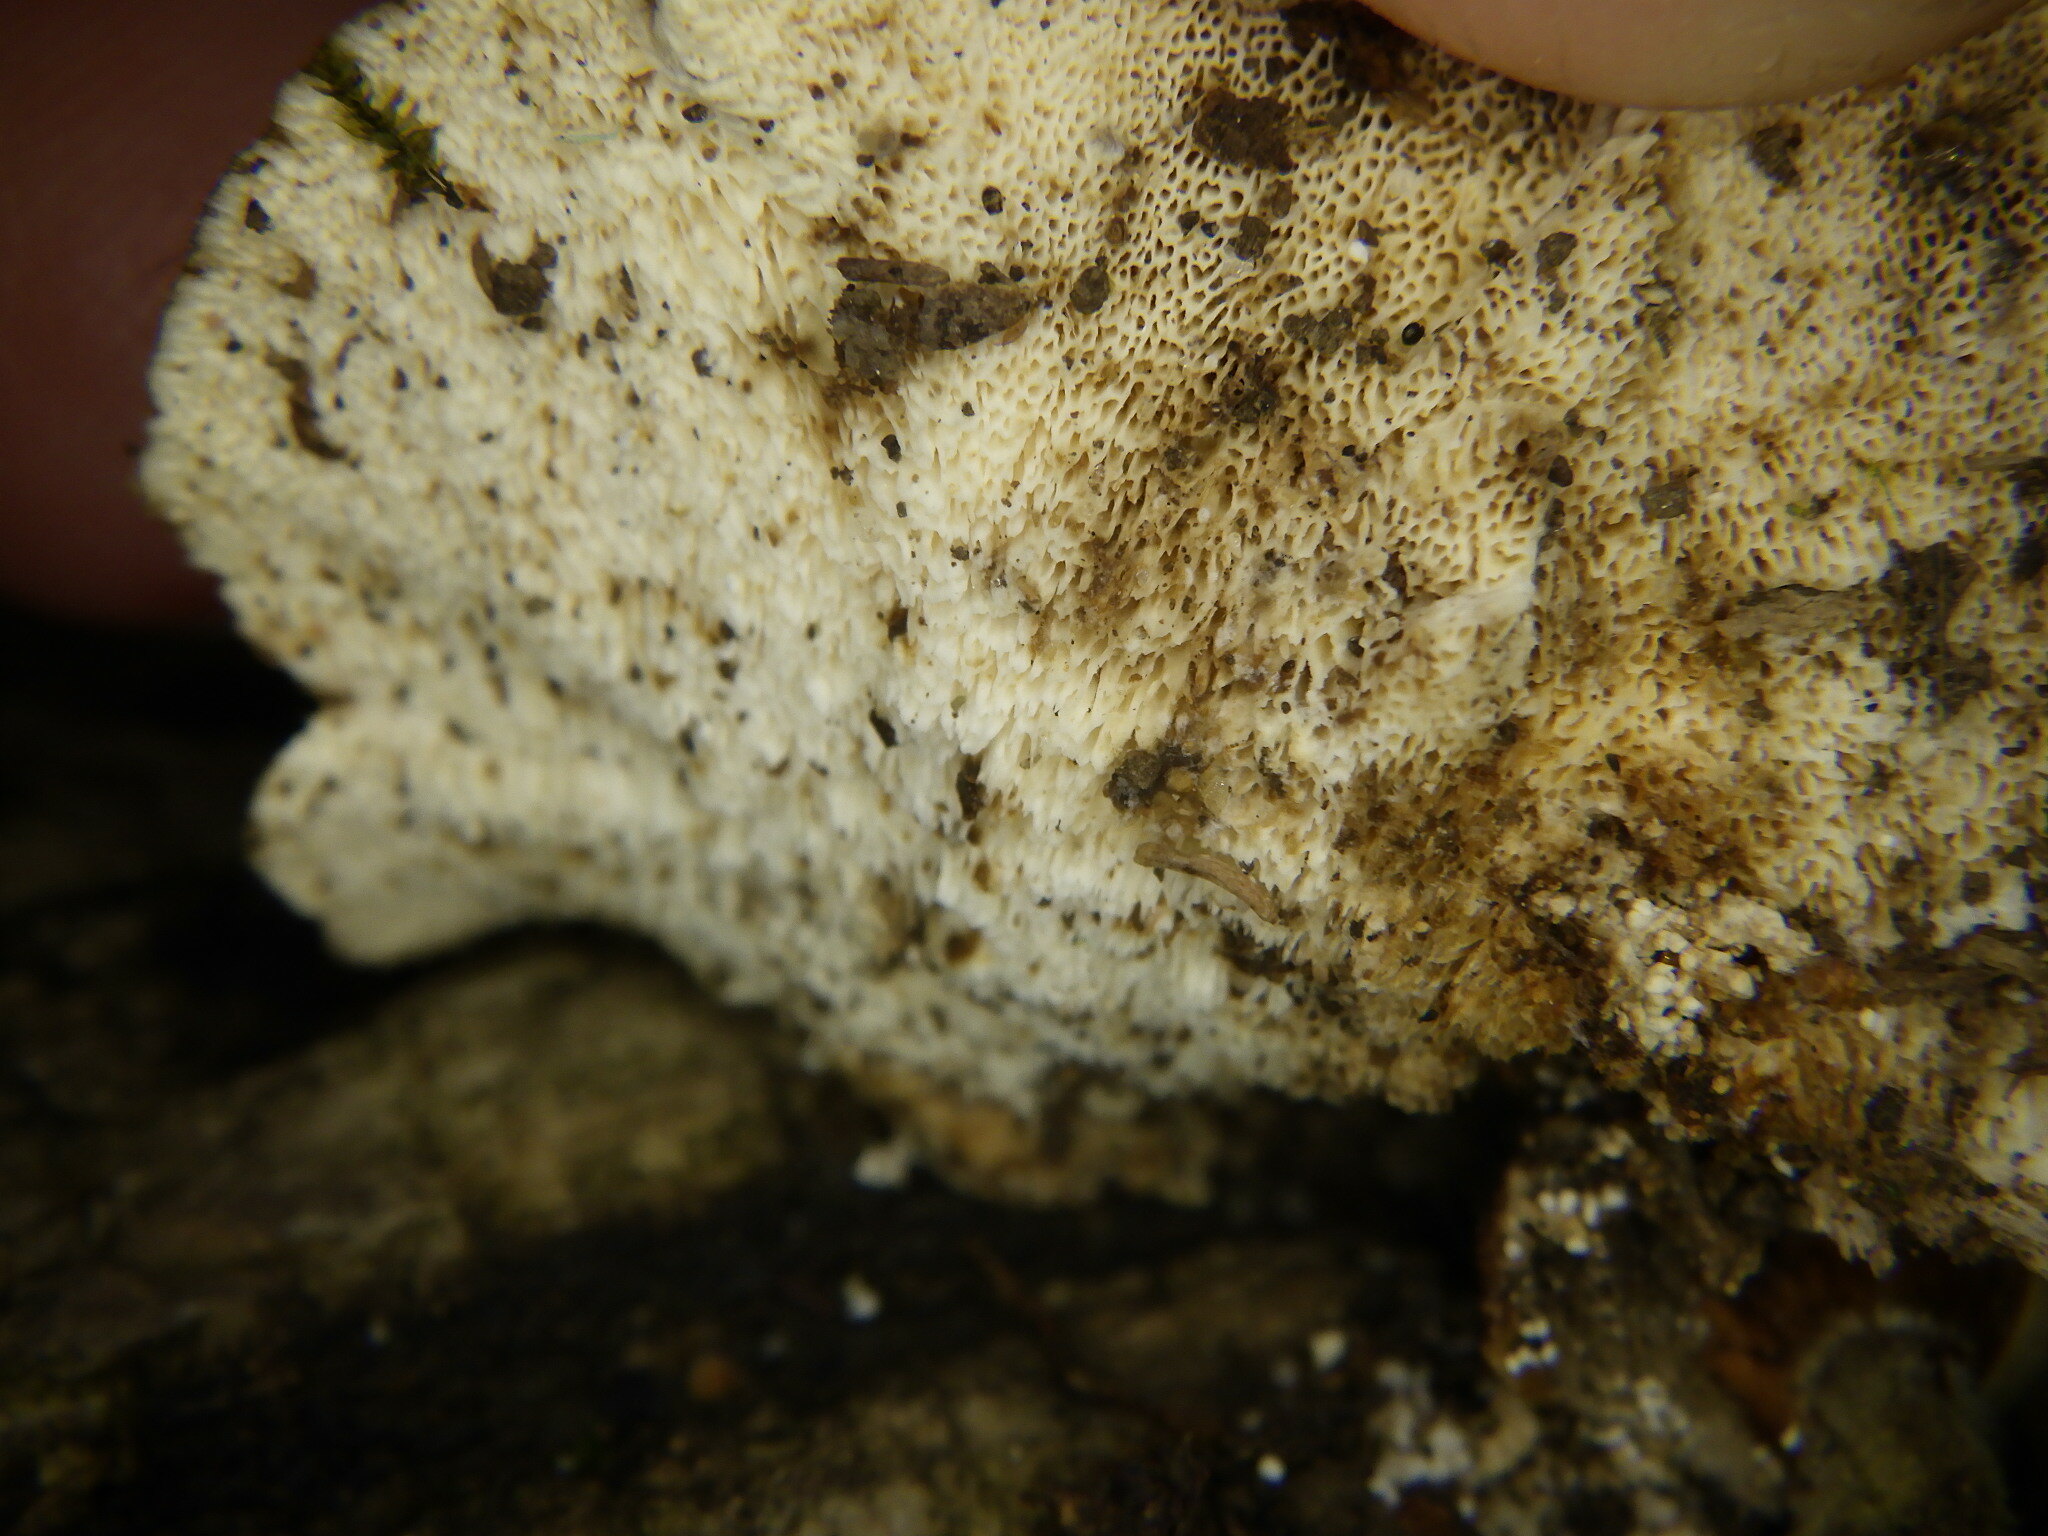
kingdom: Fungi
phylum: Basidiomycota
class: Agaricomycetes
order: Polyporales
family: Polyporaceae
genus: Trametes
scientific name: Trametes versicolor
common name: Turkeytail
